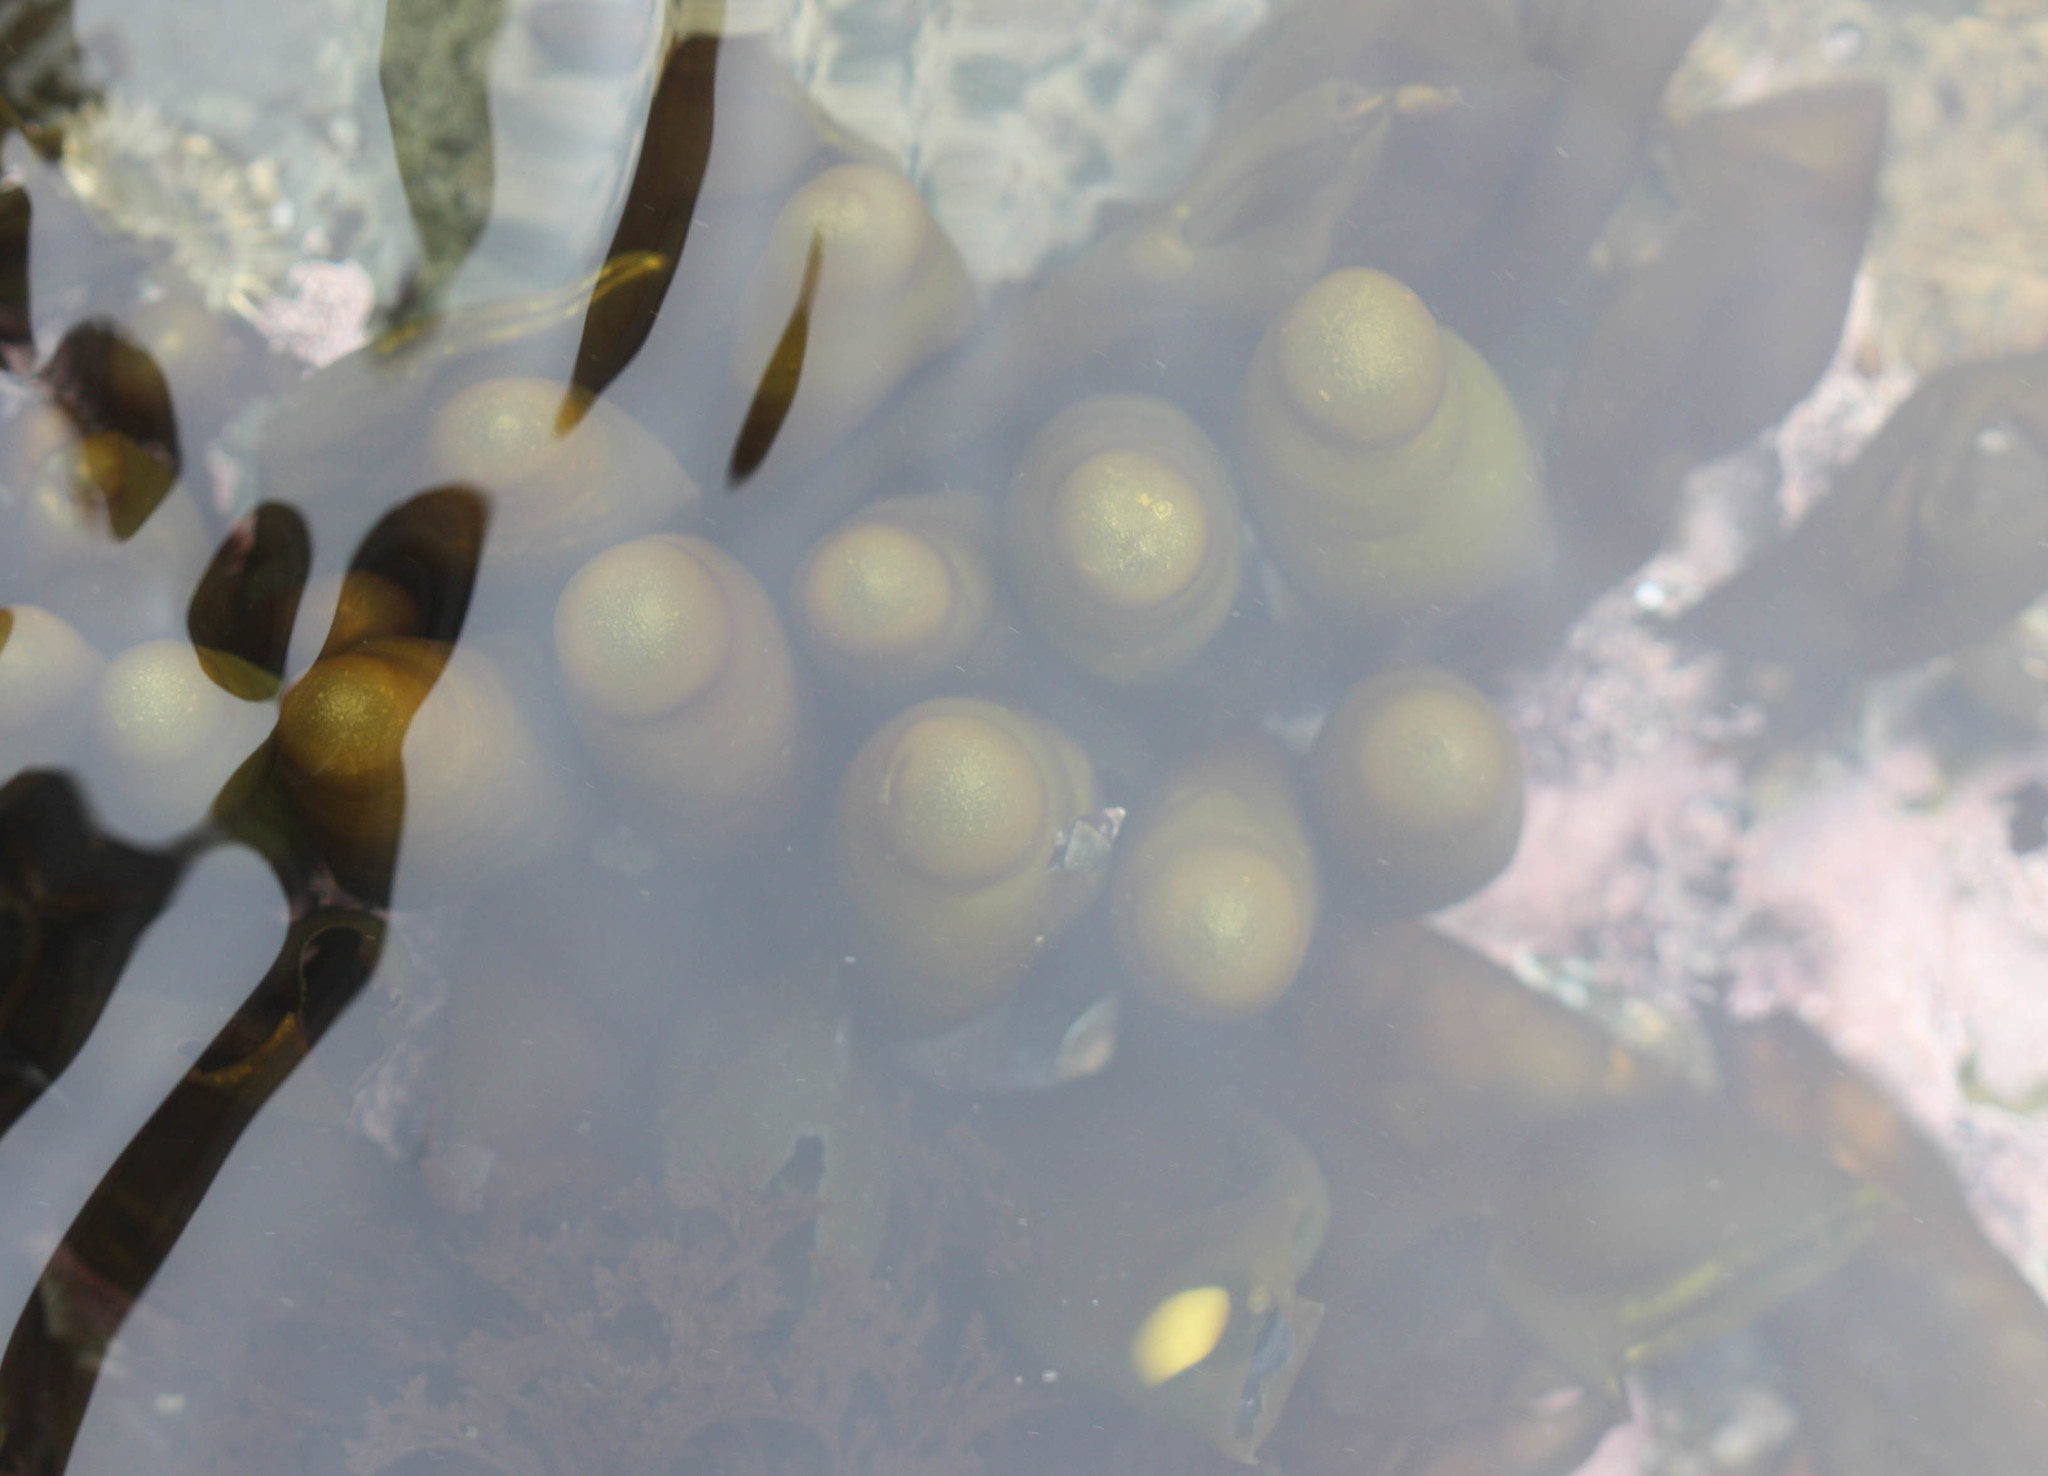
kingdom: Plantae
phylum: Rhodophyta
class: Florideophyceae
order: Palmariales
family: Palmariaceae
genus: Halosaccion
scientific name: Halosaccion glandiforme
